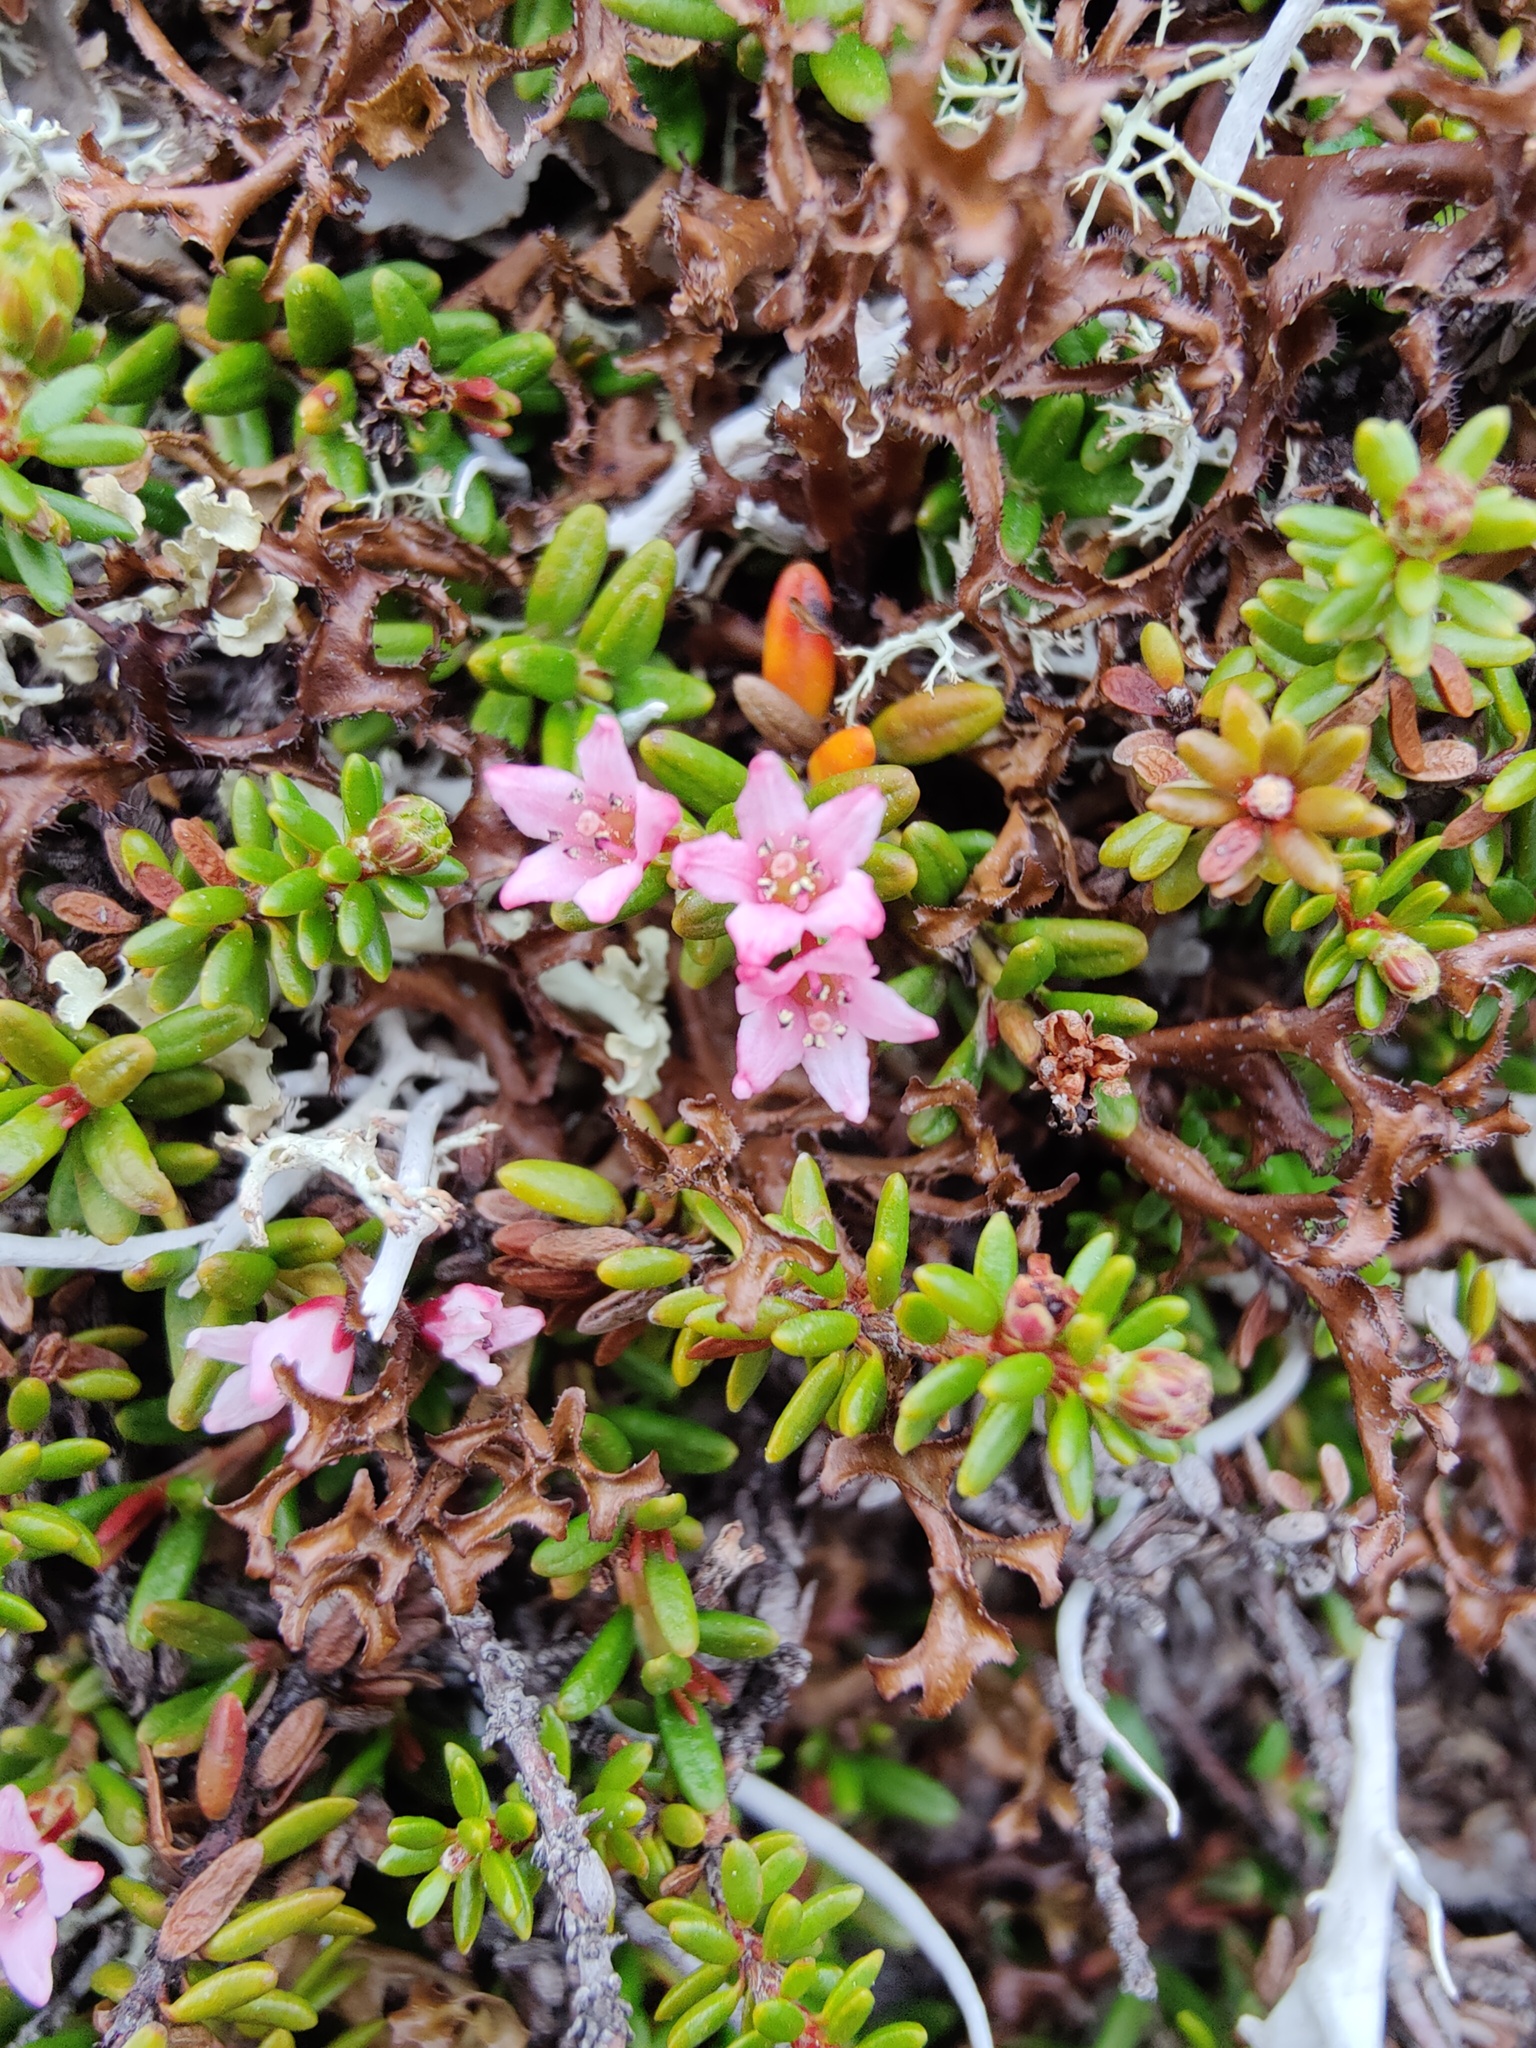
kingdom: Plantae
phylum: Tracheophyta
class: Magnoliopsida
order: Ericales
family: Ericaceae
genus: Kalmia
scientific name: Kalmia procumbens
